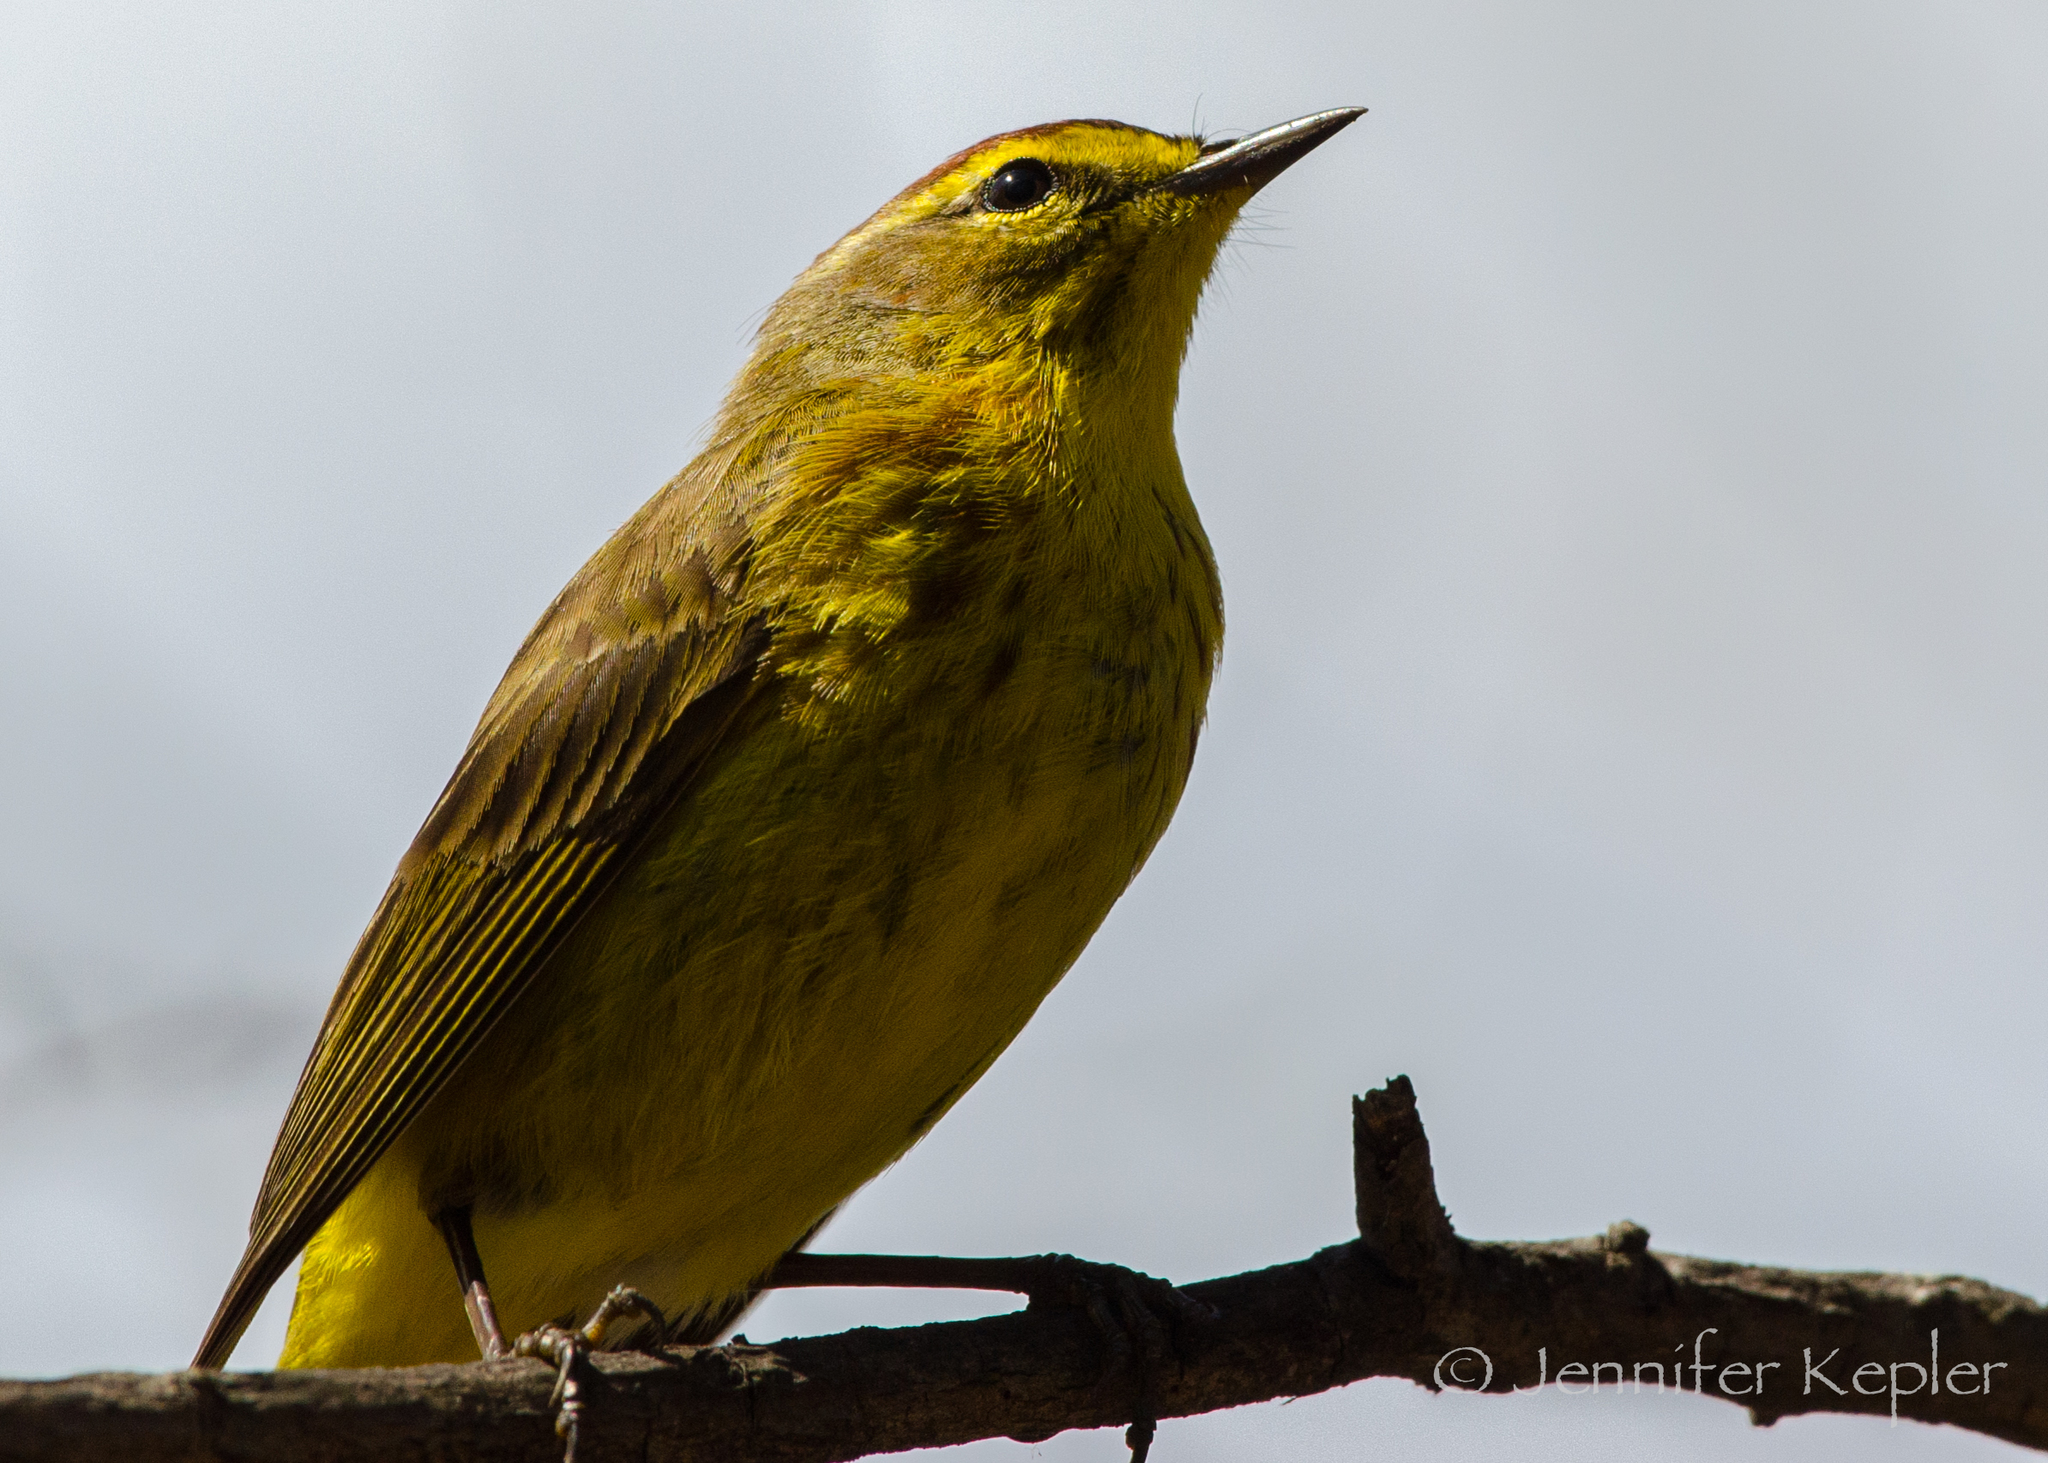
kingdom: Animalia
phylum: Chordata
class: Aves
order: Passeriformes
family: Parulidae
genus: Setophaga
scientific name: Setophaga palmarum
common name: Palm warbler
